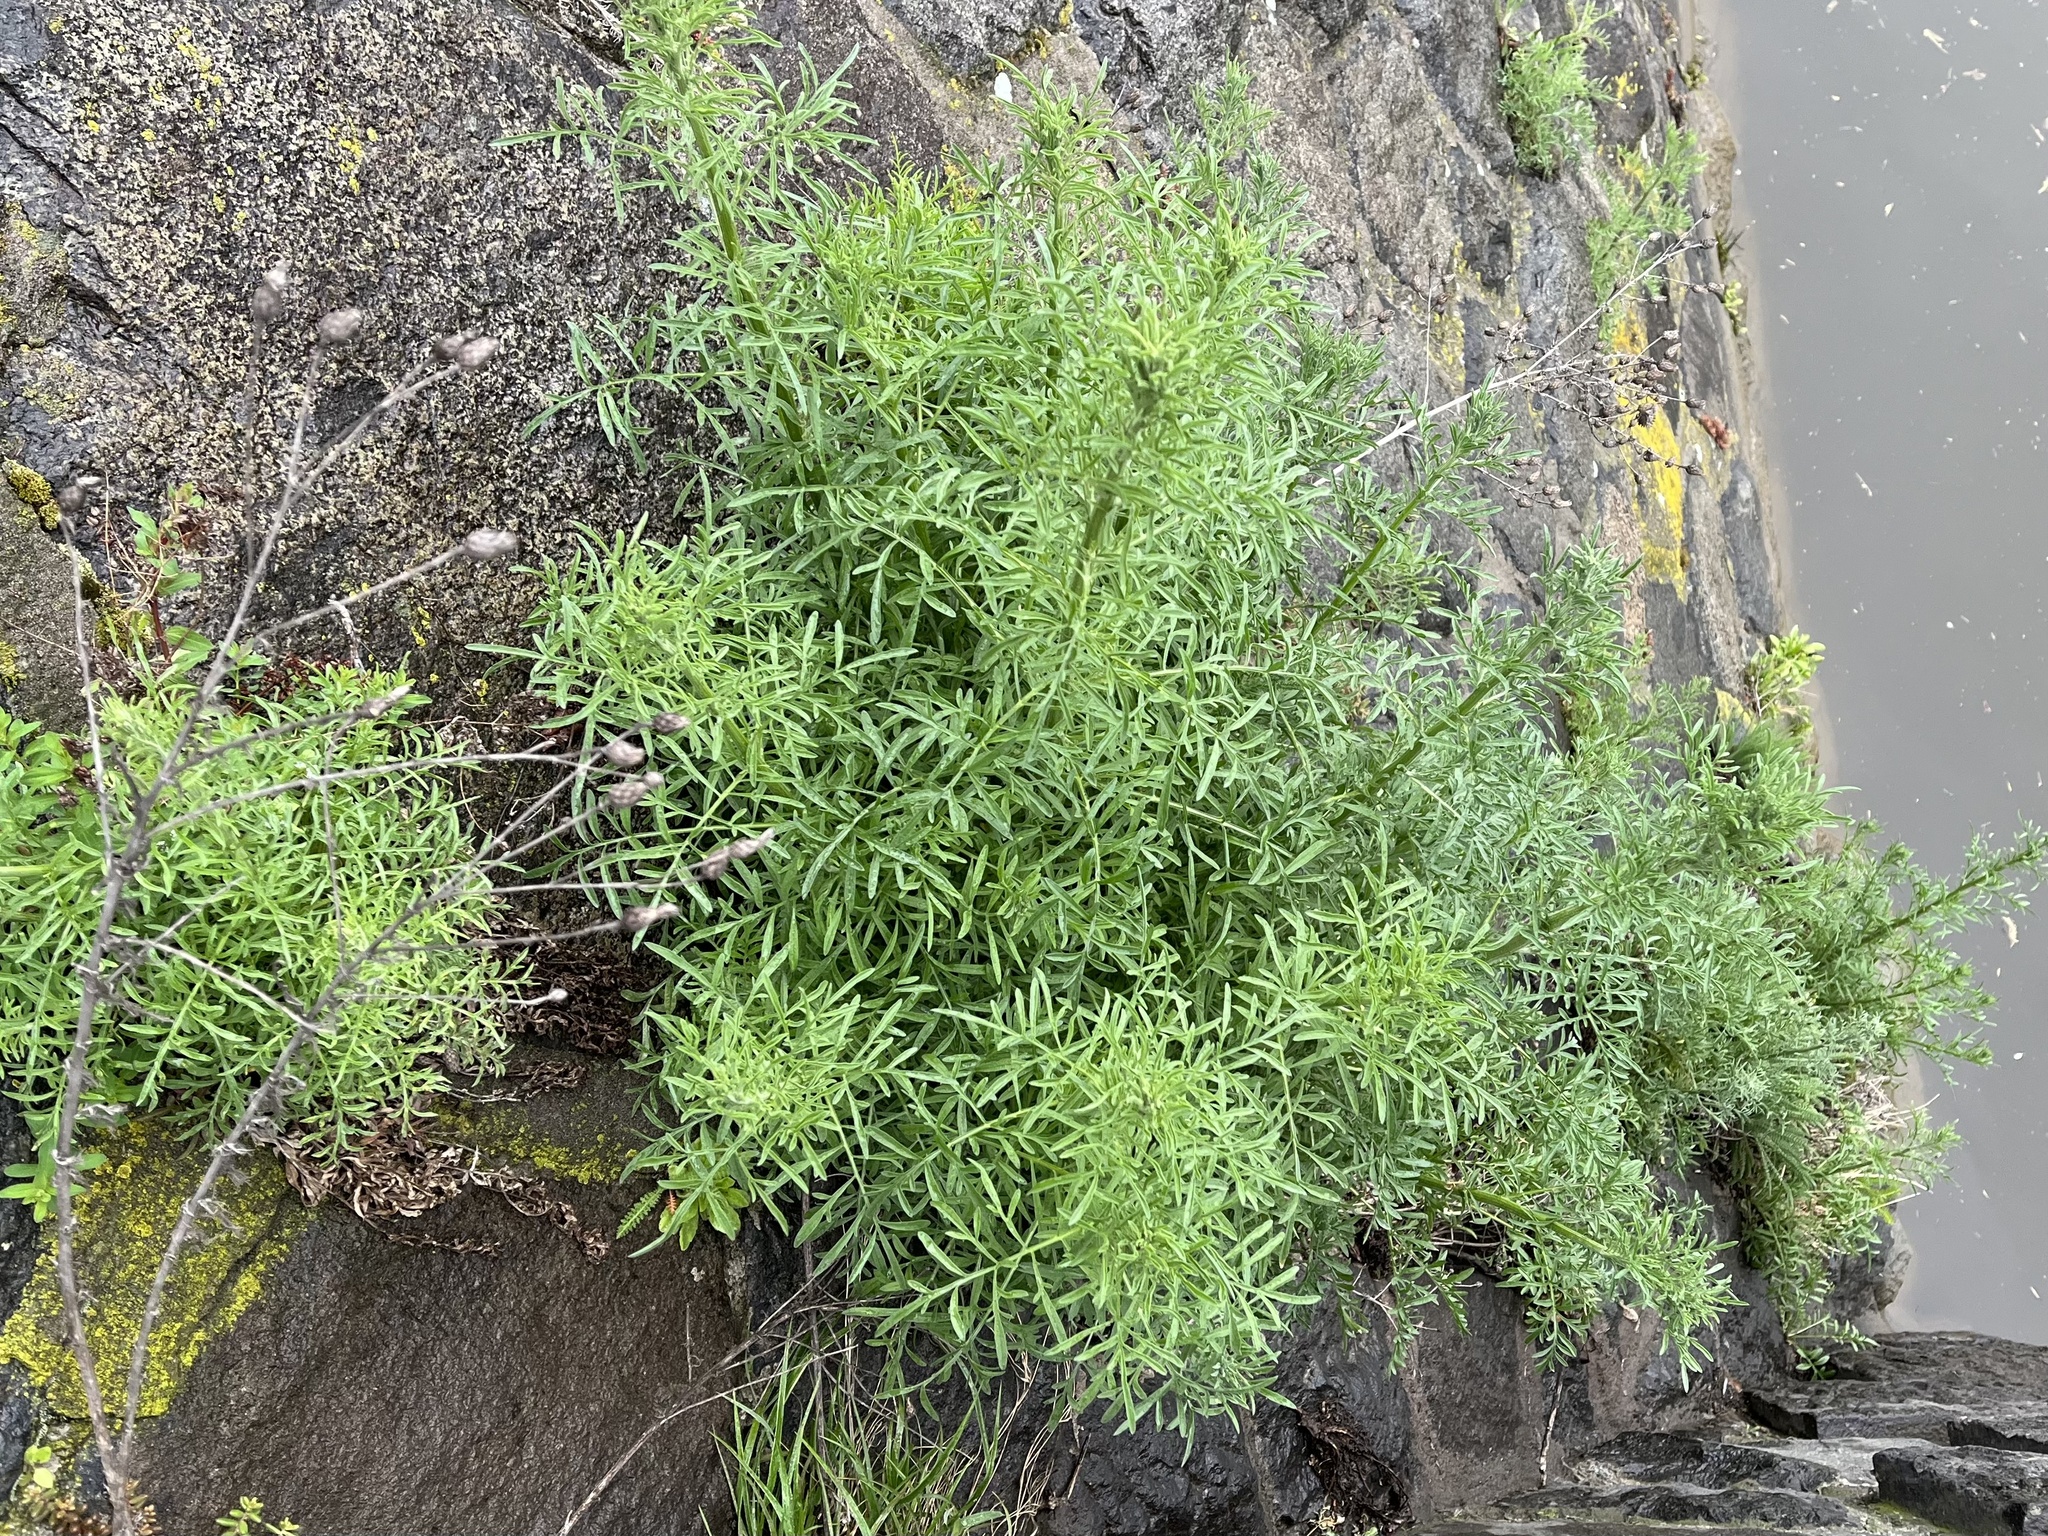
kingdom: Plantae
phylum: Tracheophyta
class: Magnoliopsida
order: Asterales
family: Asteraceae
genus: Centaurea
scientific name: Centaurea stoebe
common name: Spotted knapweed
